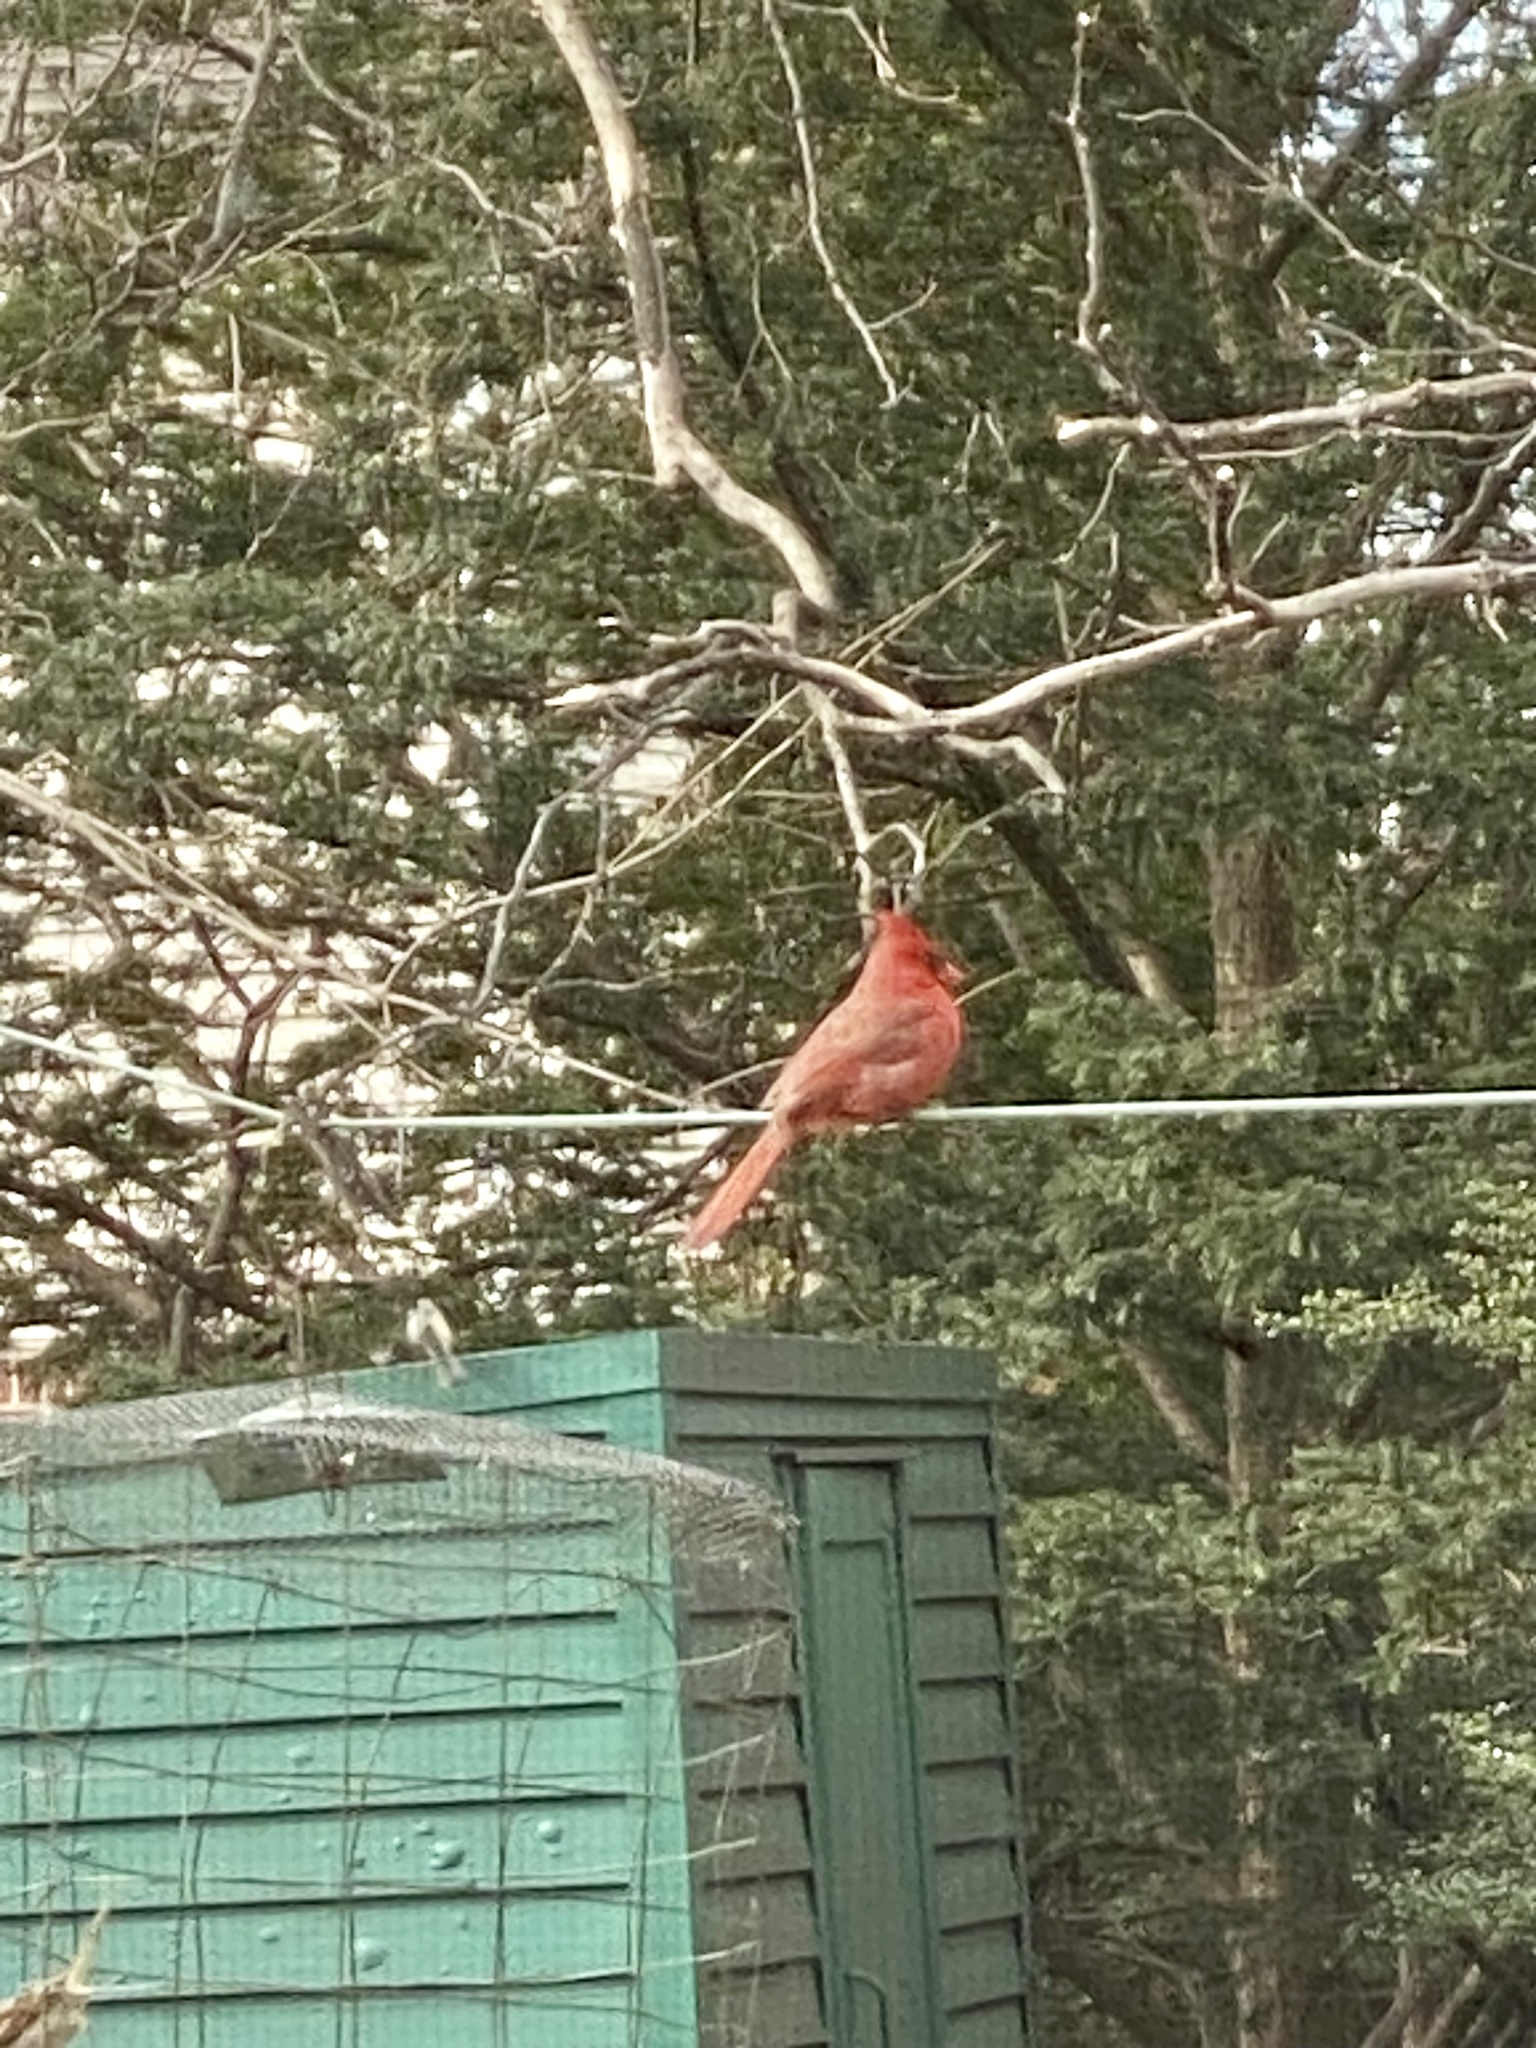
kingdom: Animalia
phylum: Chordata
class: Aves
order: Passeriformes
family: Cardinalidae
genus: Cardinalis
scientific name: Cardinalis cardinalis
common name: Northern cardinal
